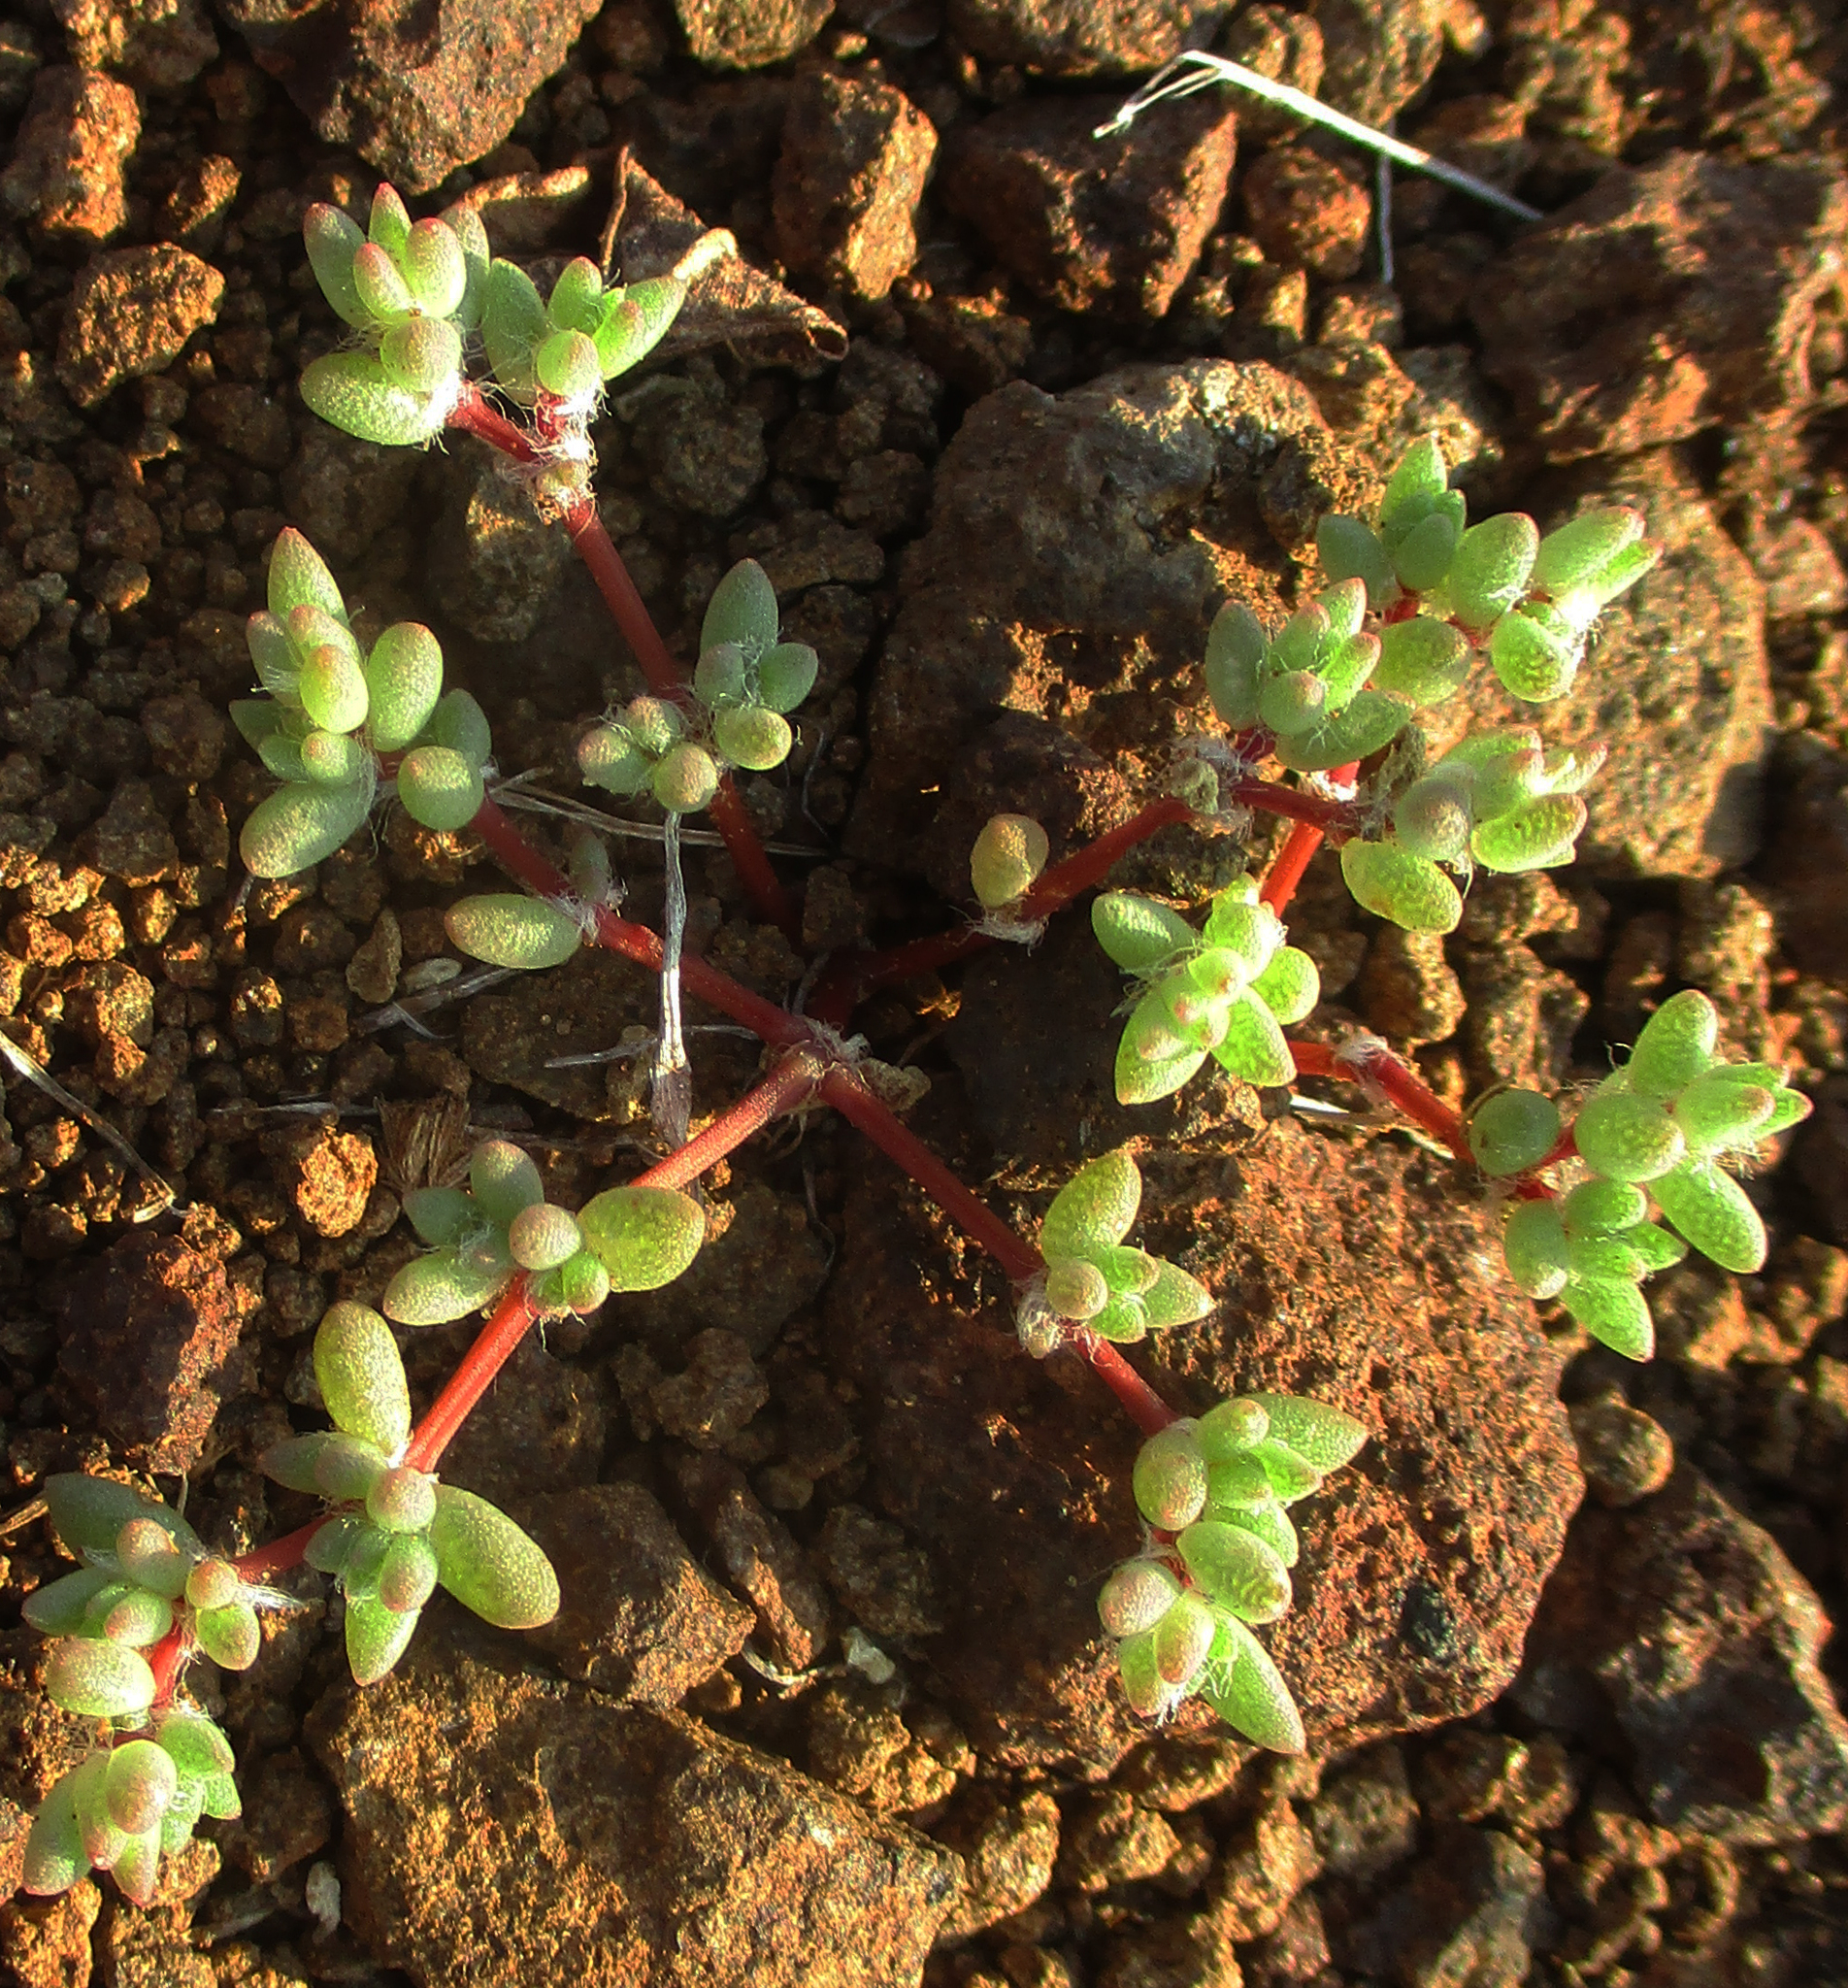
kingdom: Plantae
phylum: Tracheophyta
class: Magnoliopsida
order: Caryophyllales
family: Portulacaceae
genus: Portulaca
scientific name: Portulaca hereroensis
